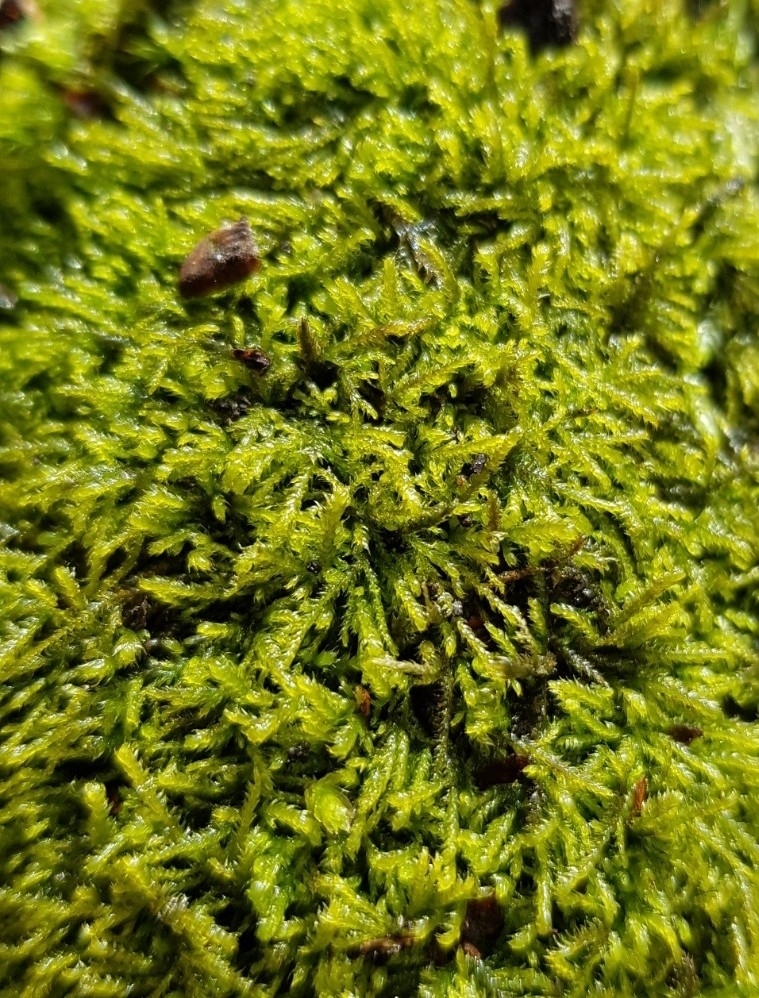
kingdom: Plantae
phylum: Bryophyta
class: Bryopsida
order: Hypnales
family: Lembophyllaceae
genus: Heterocladium
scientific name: Heterocladium heteropterum
